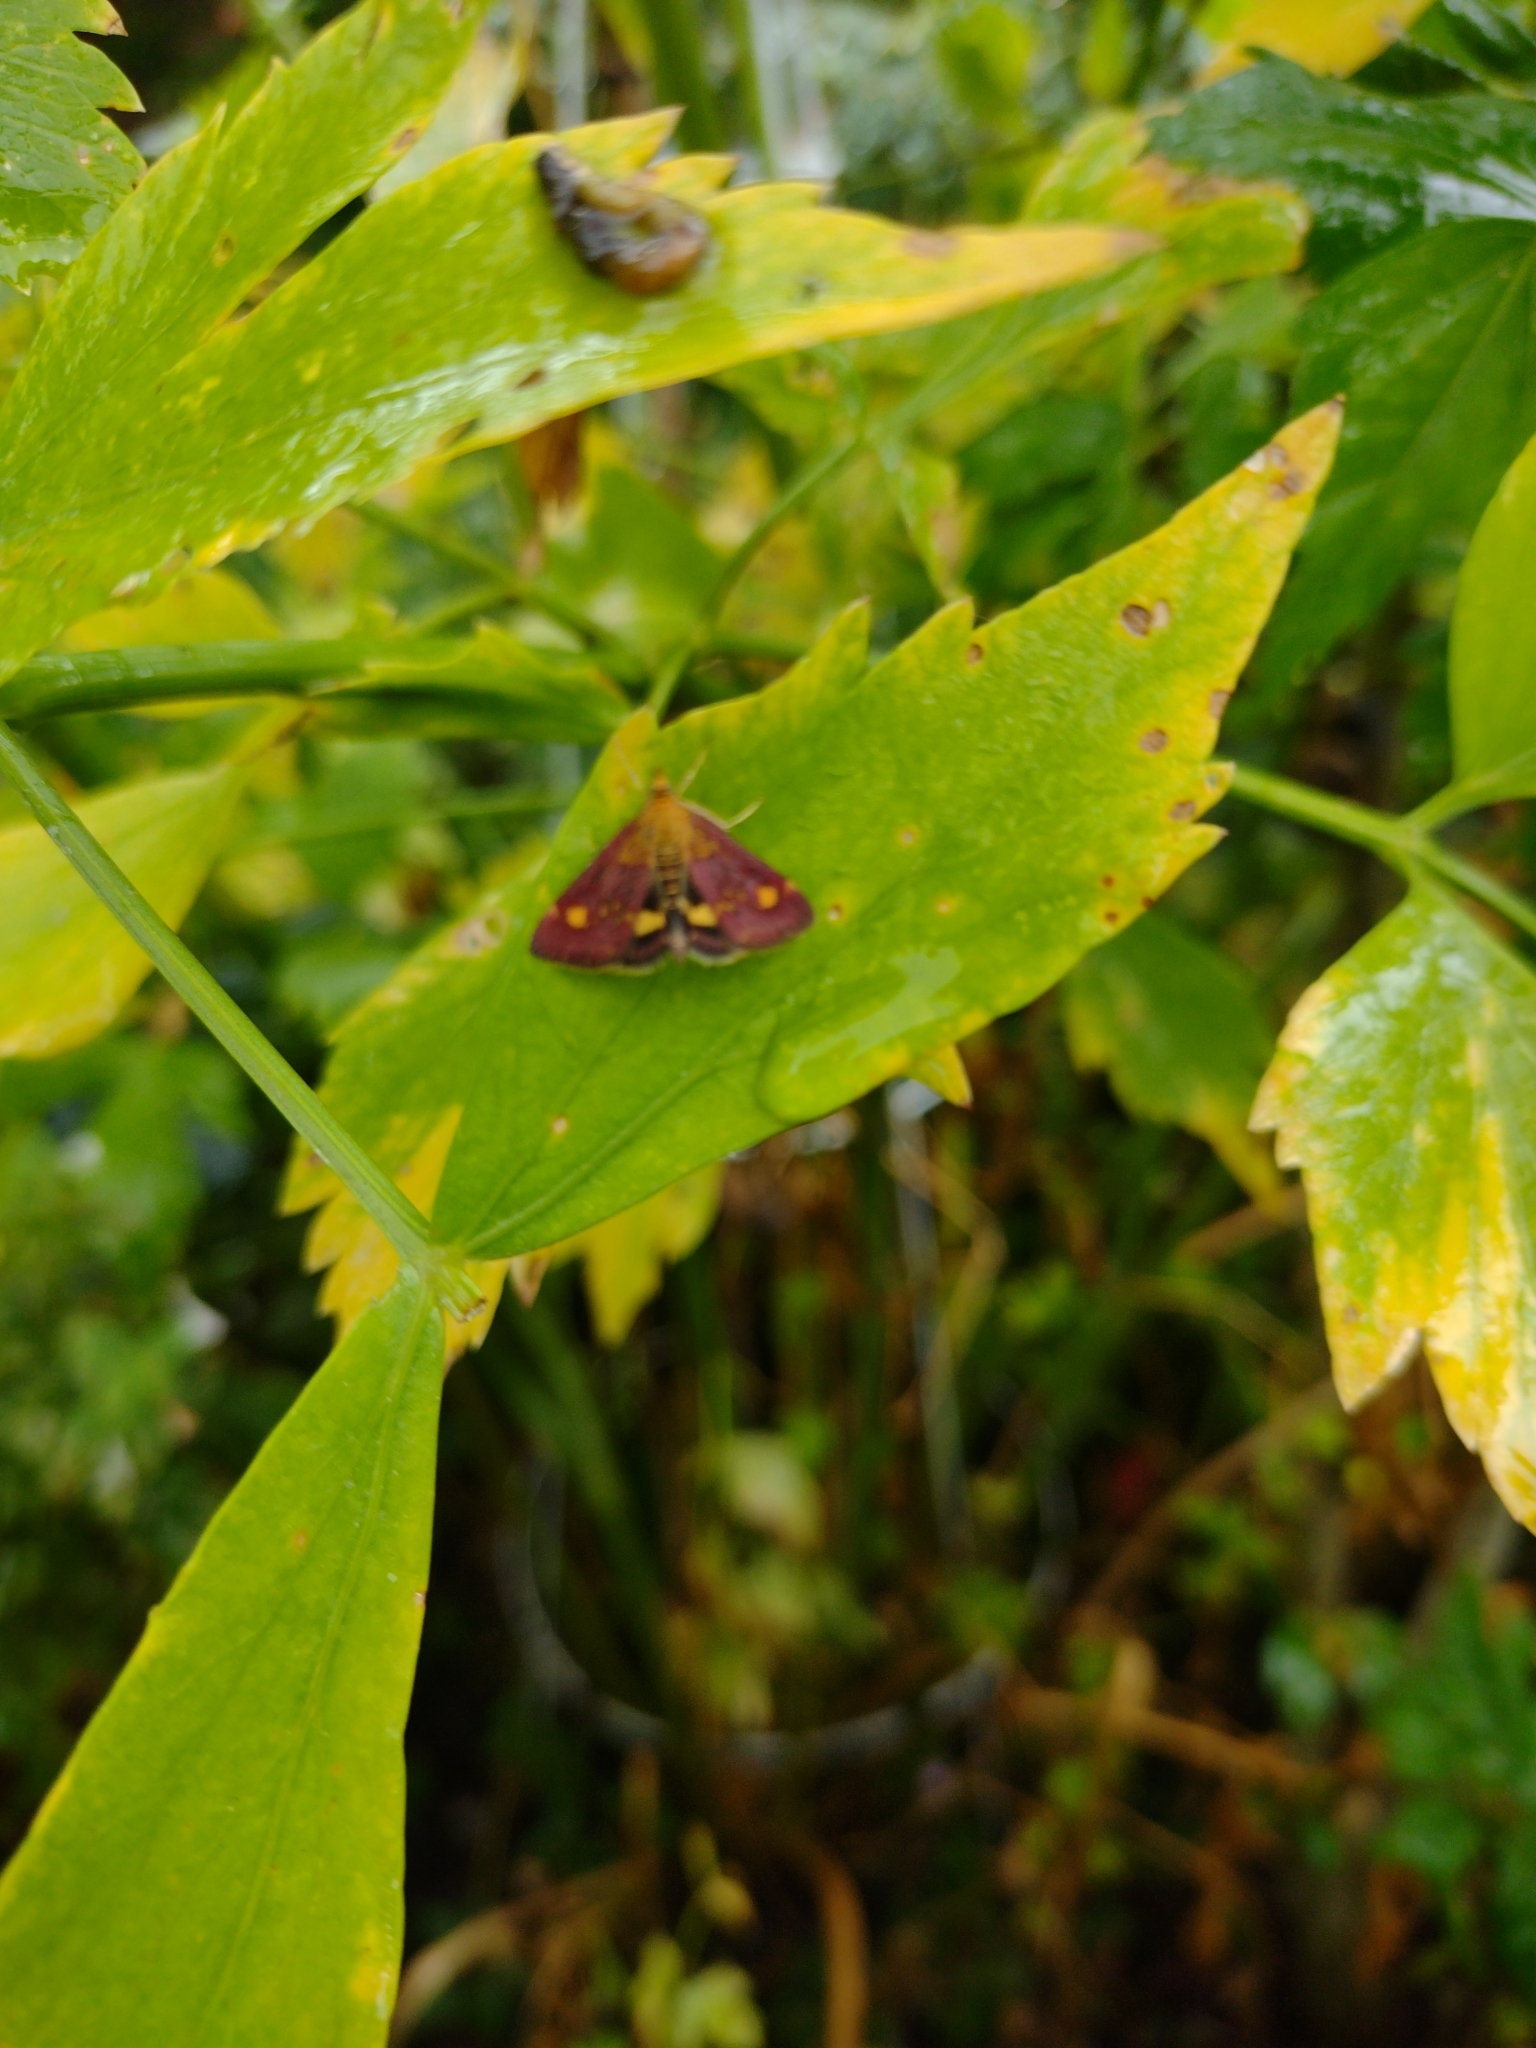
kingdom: Animalia
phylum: Arthropoda
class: Insecta
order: Lepidoptera
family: Crambidae
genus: Pyrausta
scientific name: Pyrausta aurata
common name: Small purple & gold
